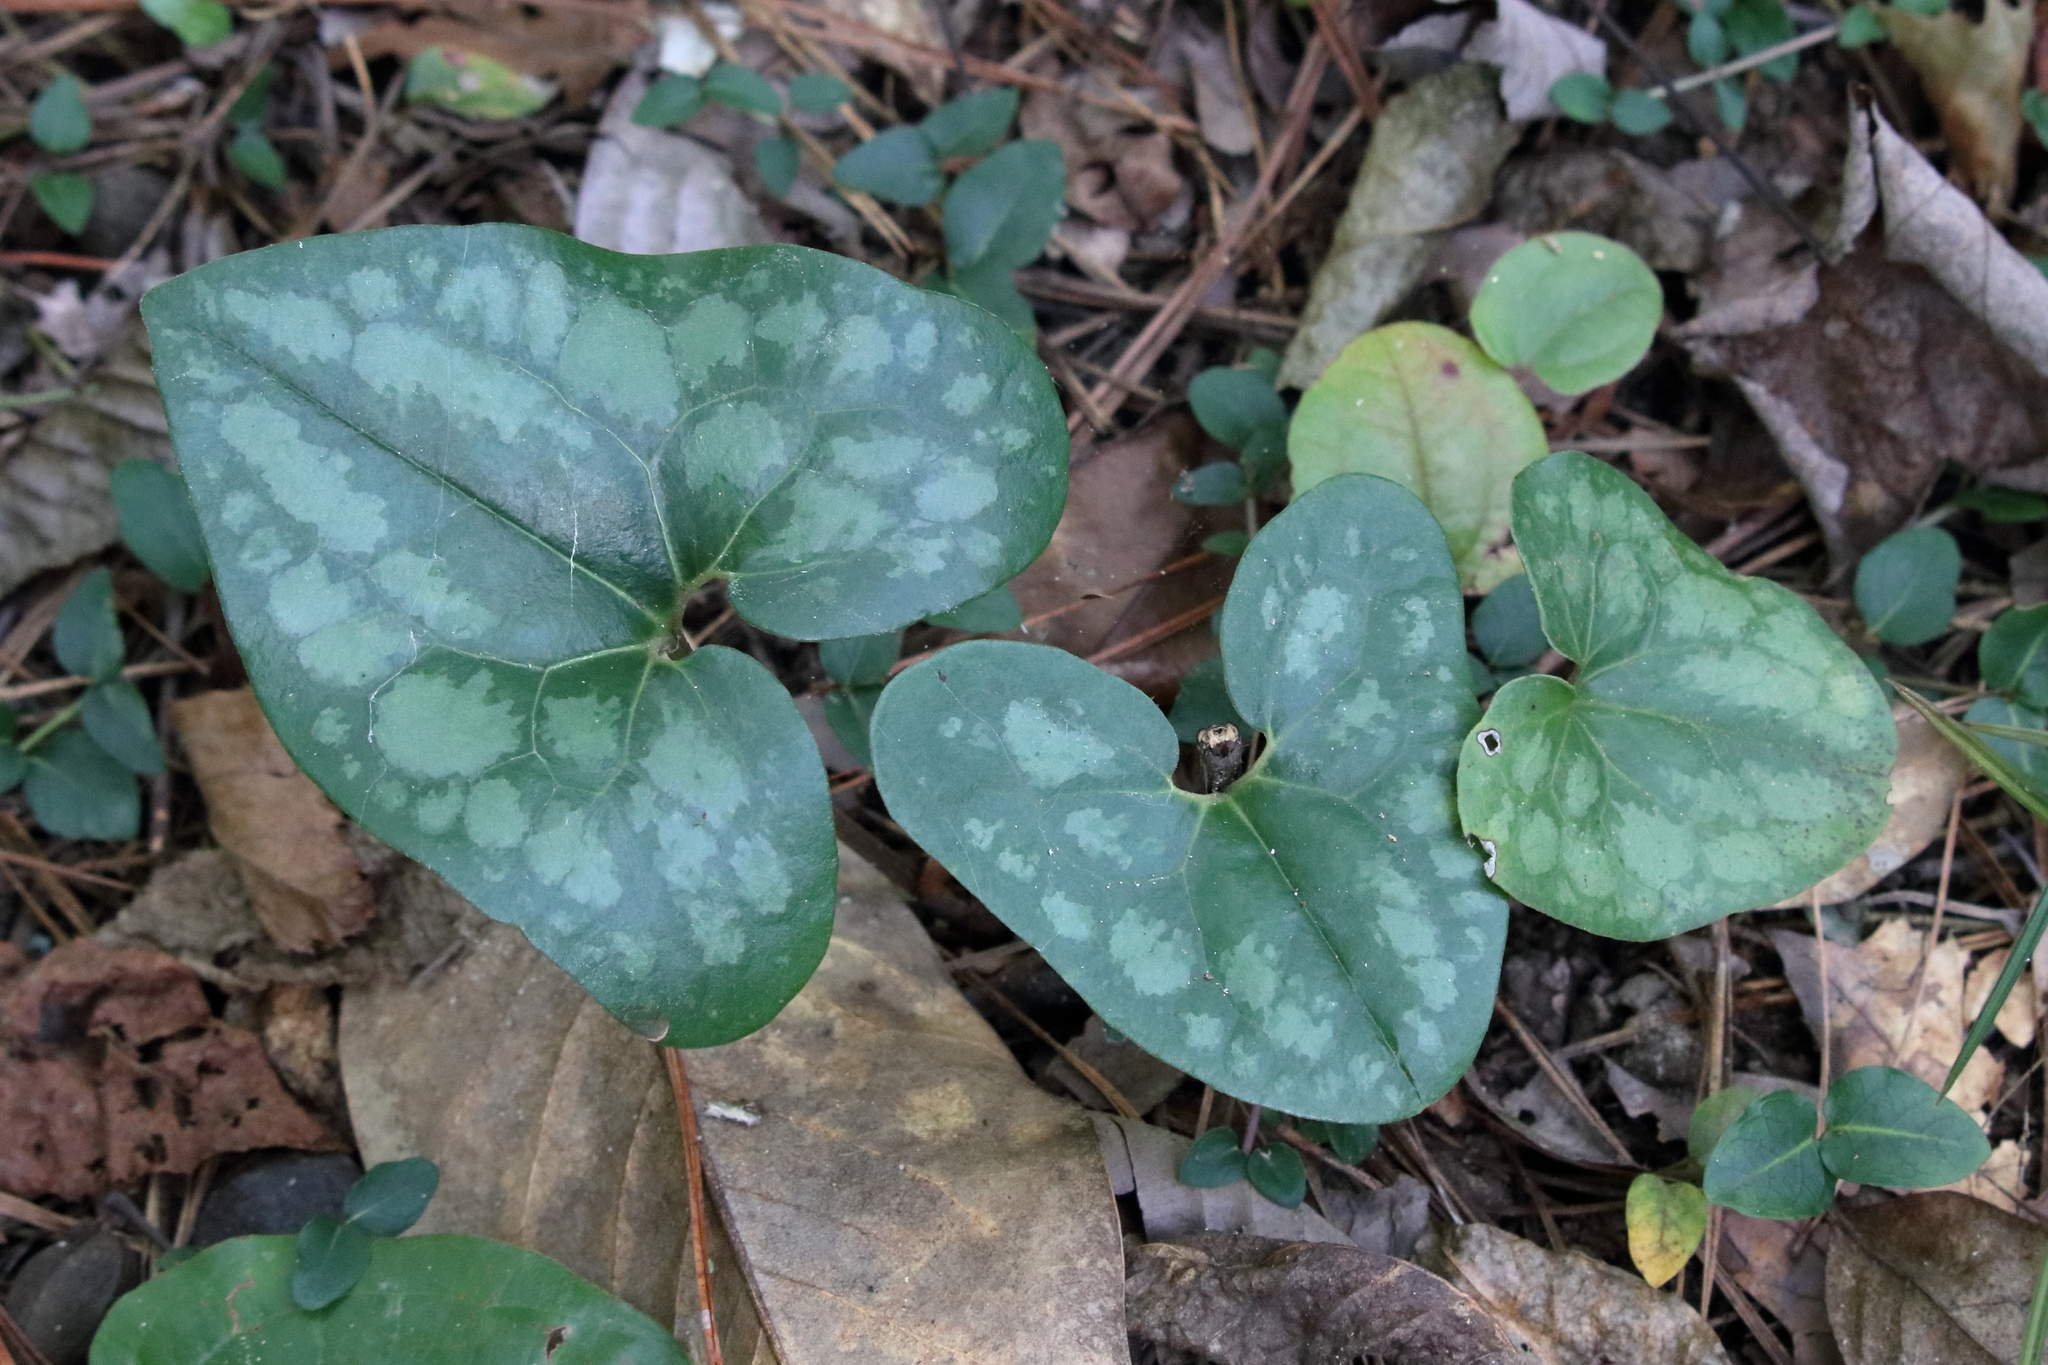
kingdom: Plantae
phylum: Tracheophyta
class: Magnoliopsida
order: Piperales
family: Aristolochiaceae
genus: Hexastylis
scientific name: Hexastylis arifolia
